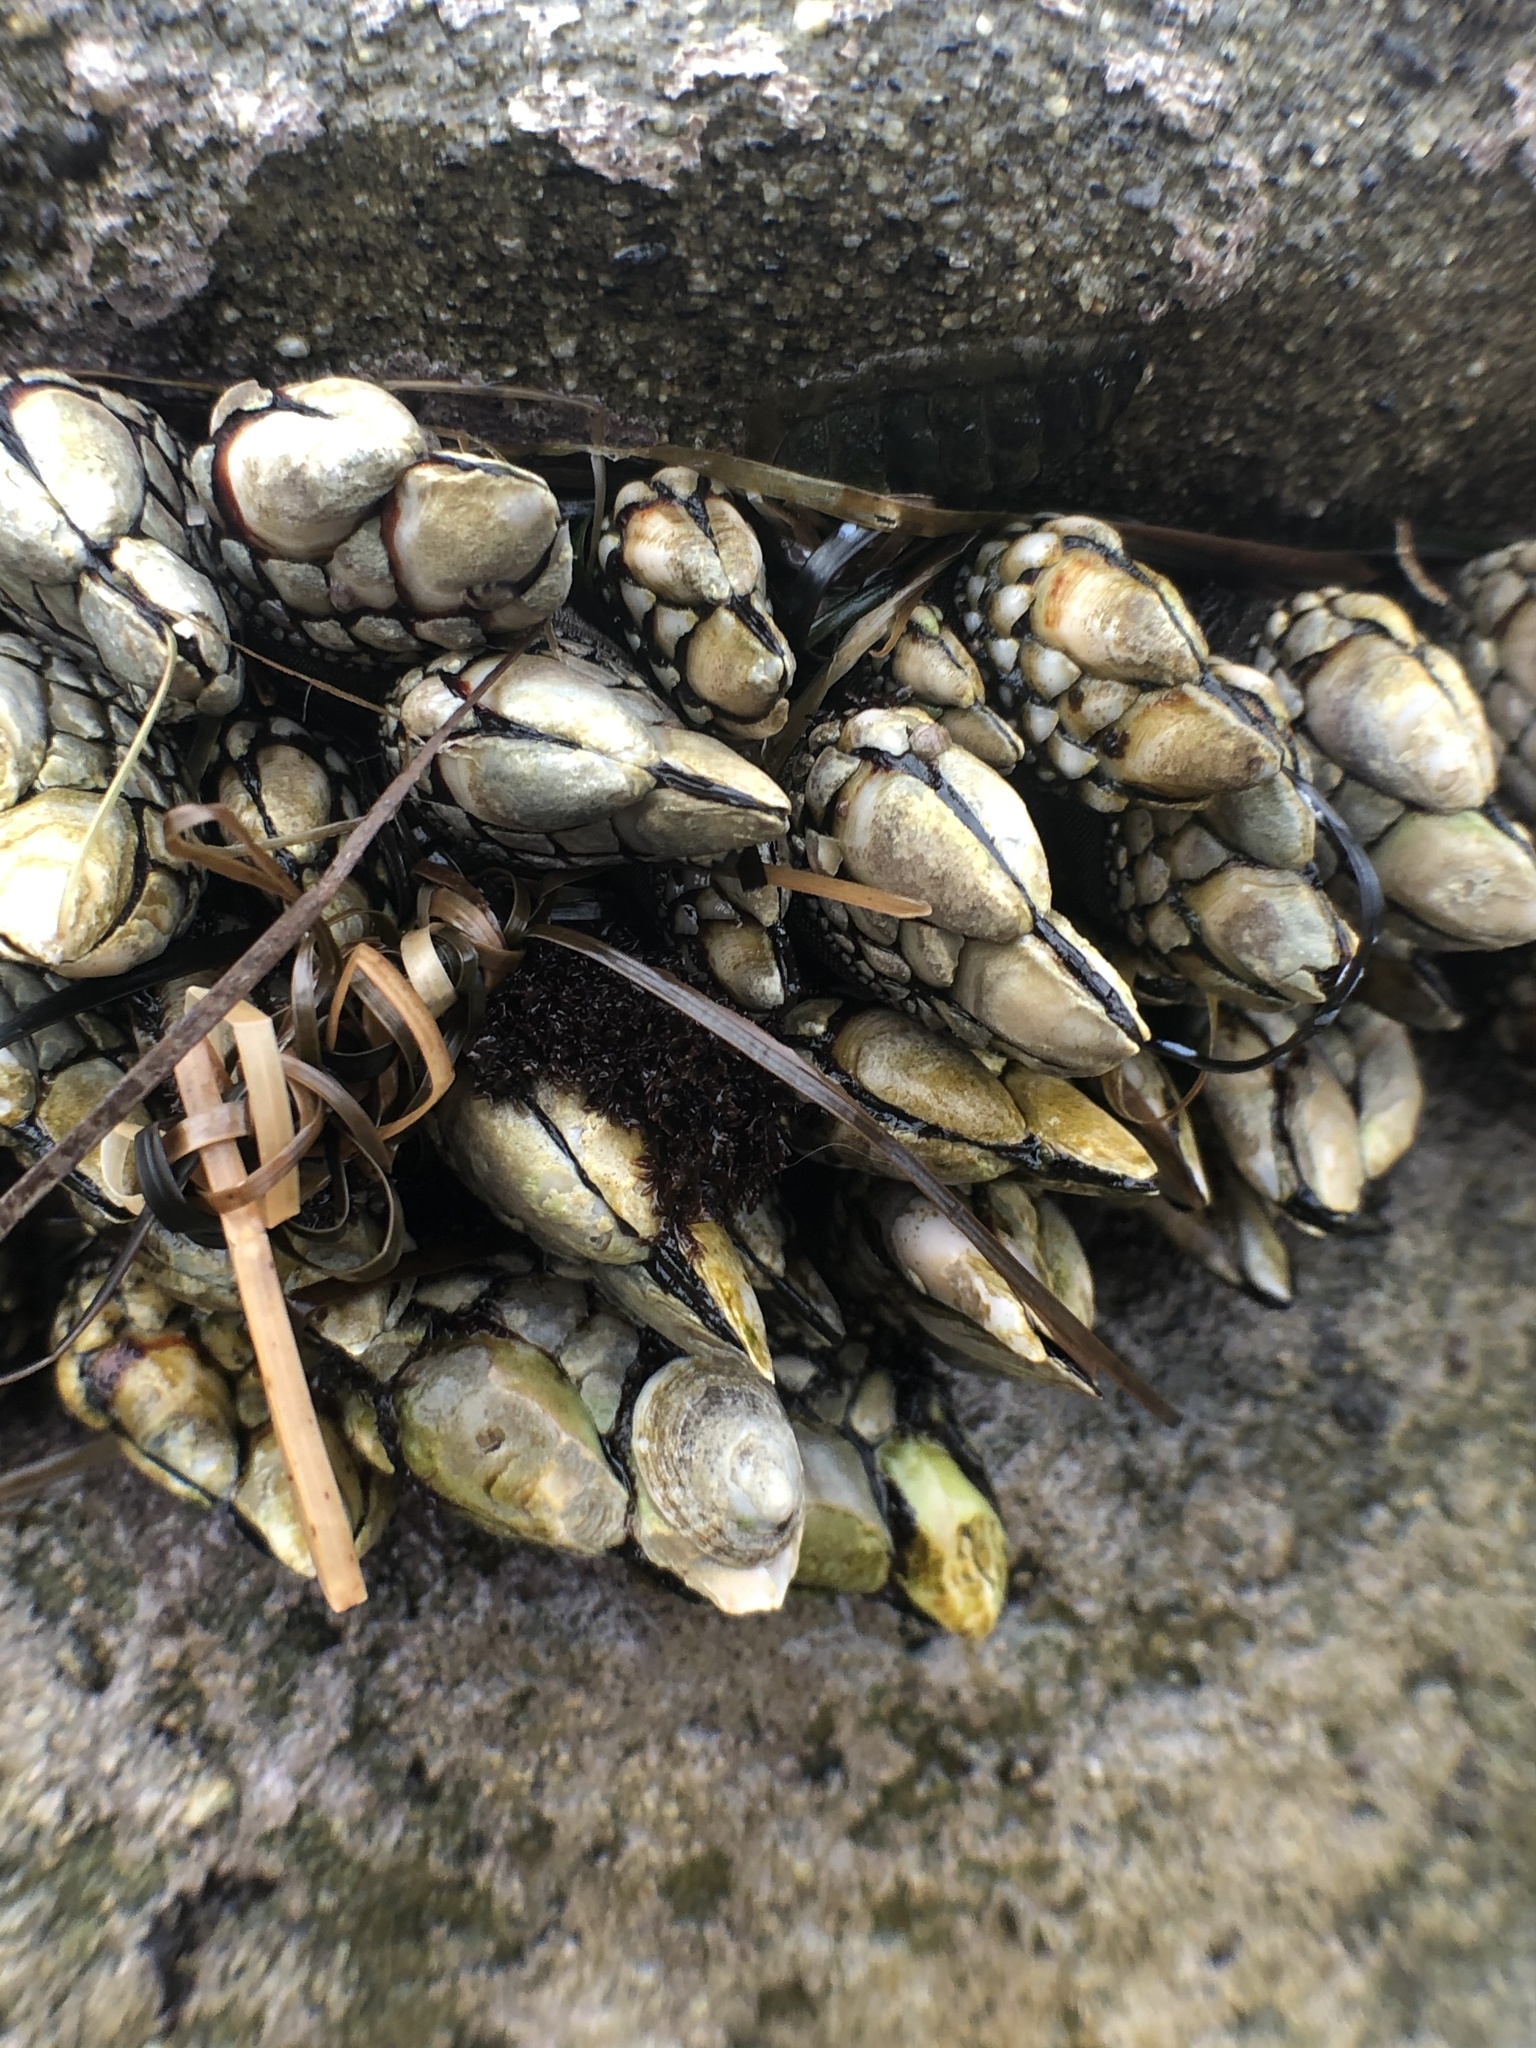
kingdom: Animalia
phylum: Arthropoda
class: Maxillopoda
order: Pedunculata
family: Pollicipedidae
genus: Pollicipes
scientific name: Pollicipes polymerus
